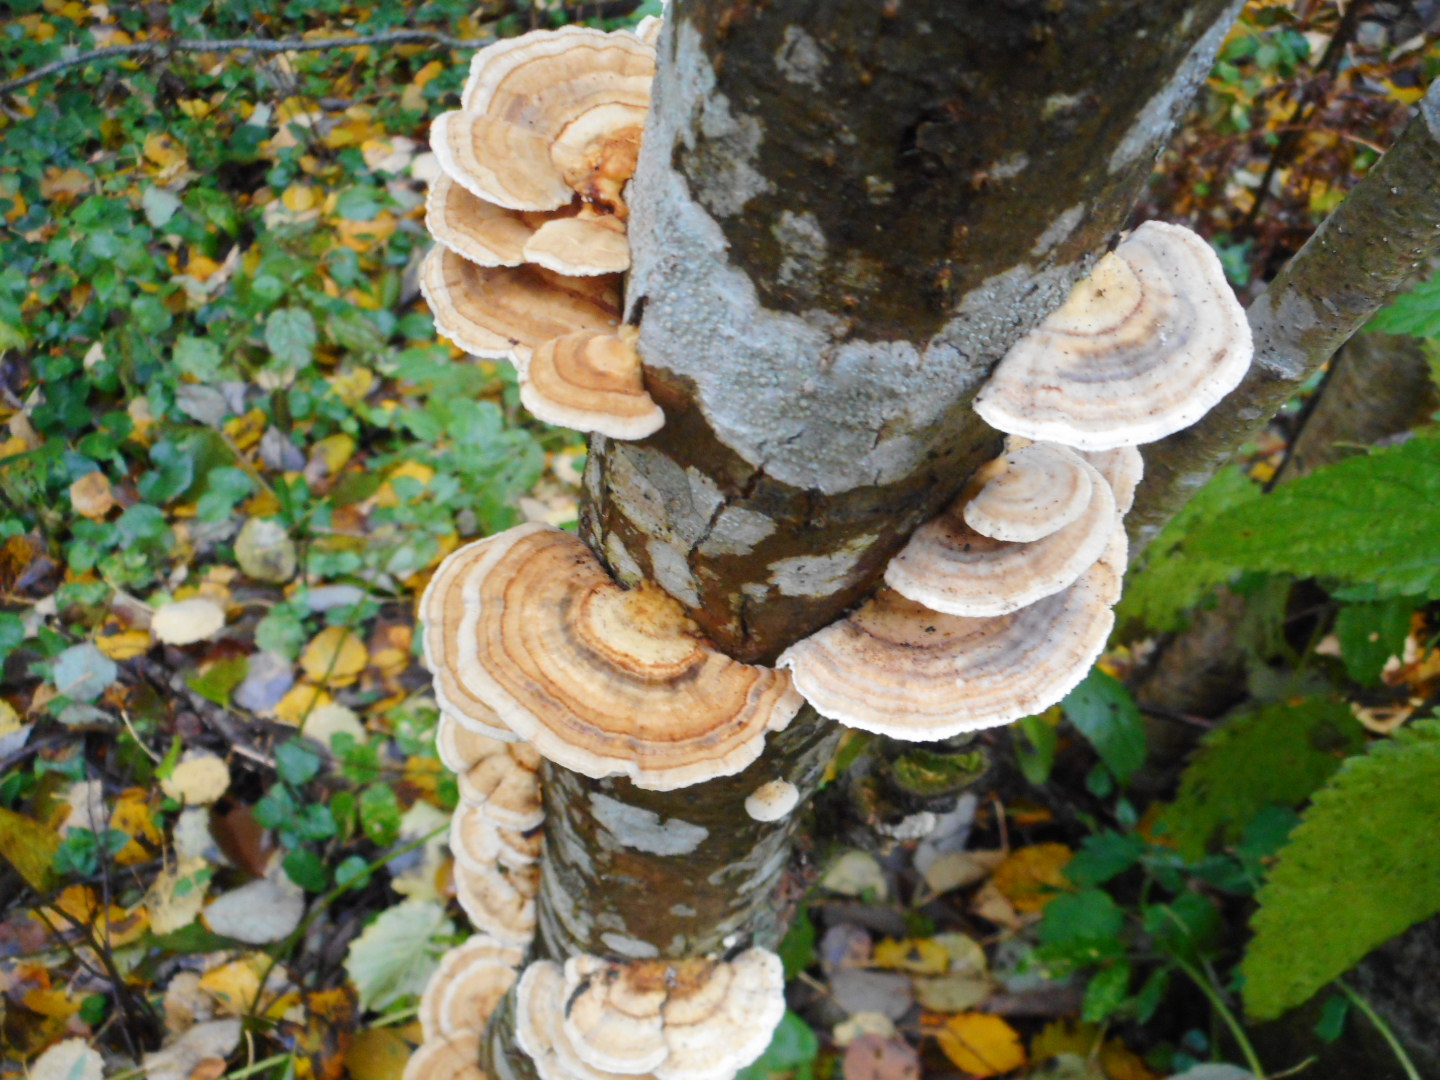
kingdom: Fungi
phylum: Basidiomycota
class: Agaricomycetes
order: Polyporales
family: Polyporaceae
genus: Trametes
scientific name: Trametes ochracea
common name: Ochre bracket
